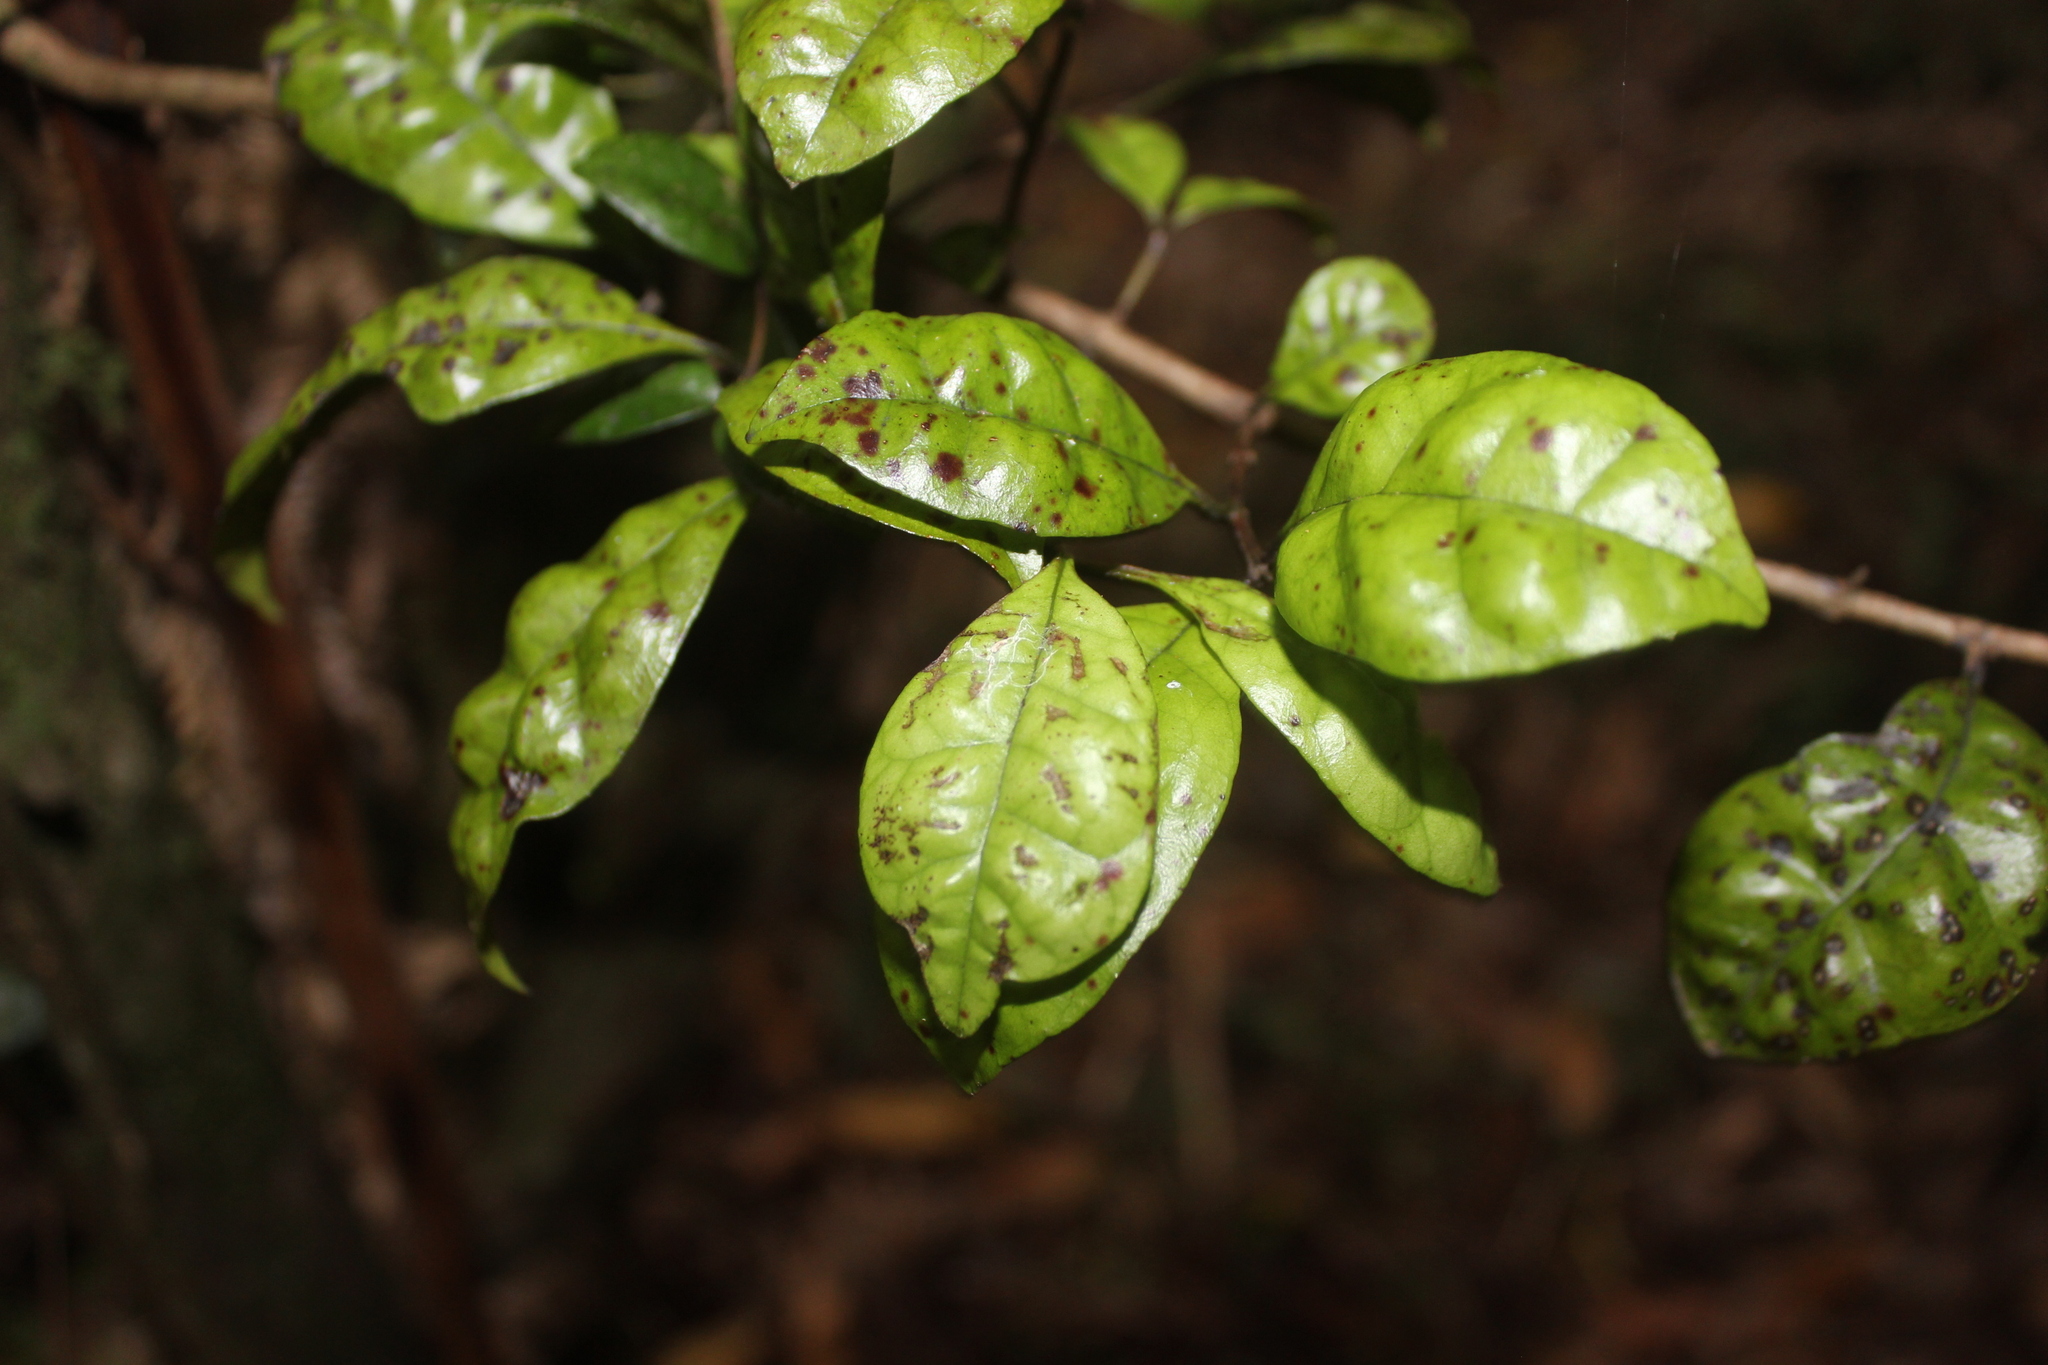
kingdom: Plantae
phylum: Tracheophyta
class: Magnoliopsida
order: Myrtales
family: Myrtaceae
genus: Lophomyrtus
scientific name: Lophomyrtus bullata
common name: Rama rama
